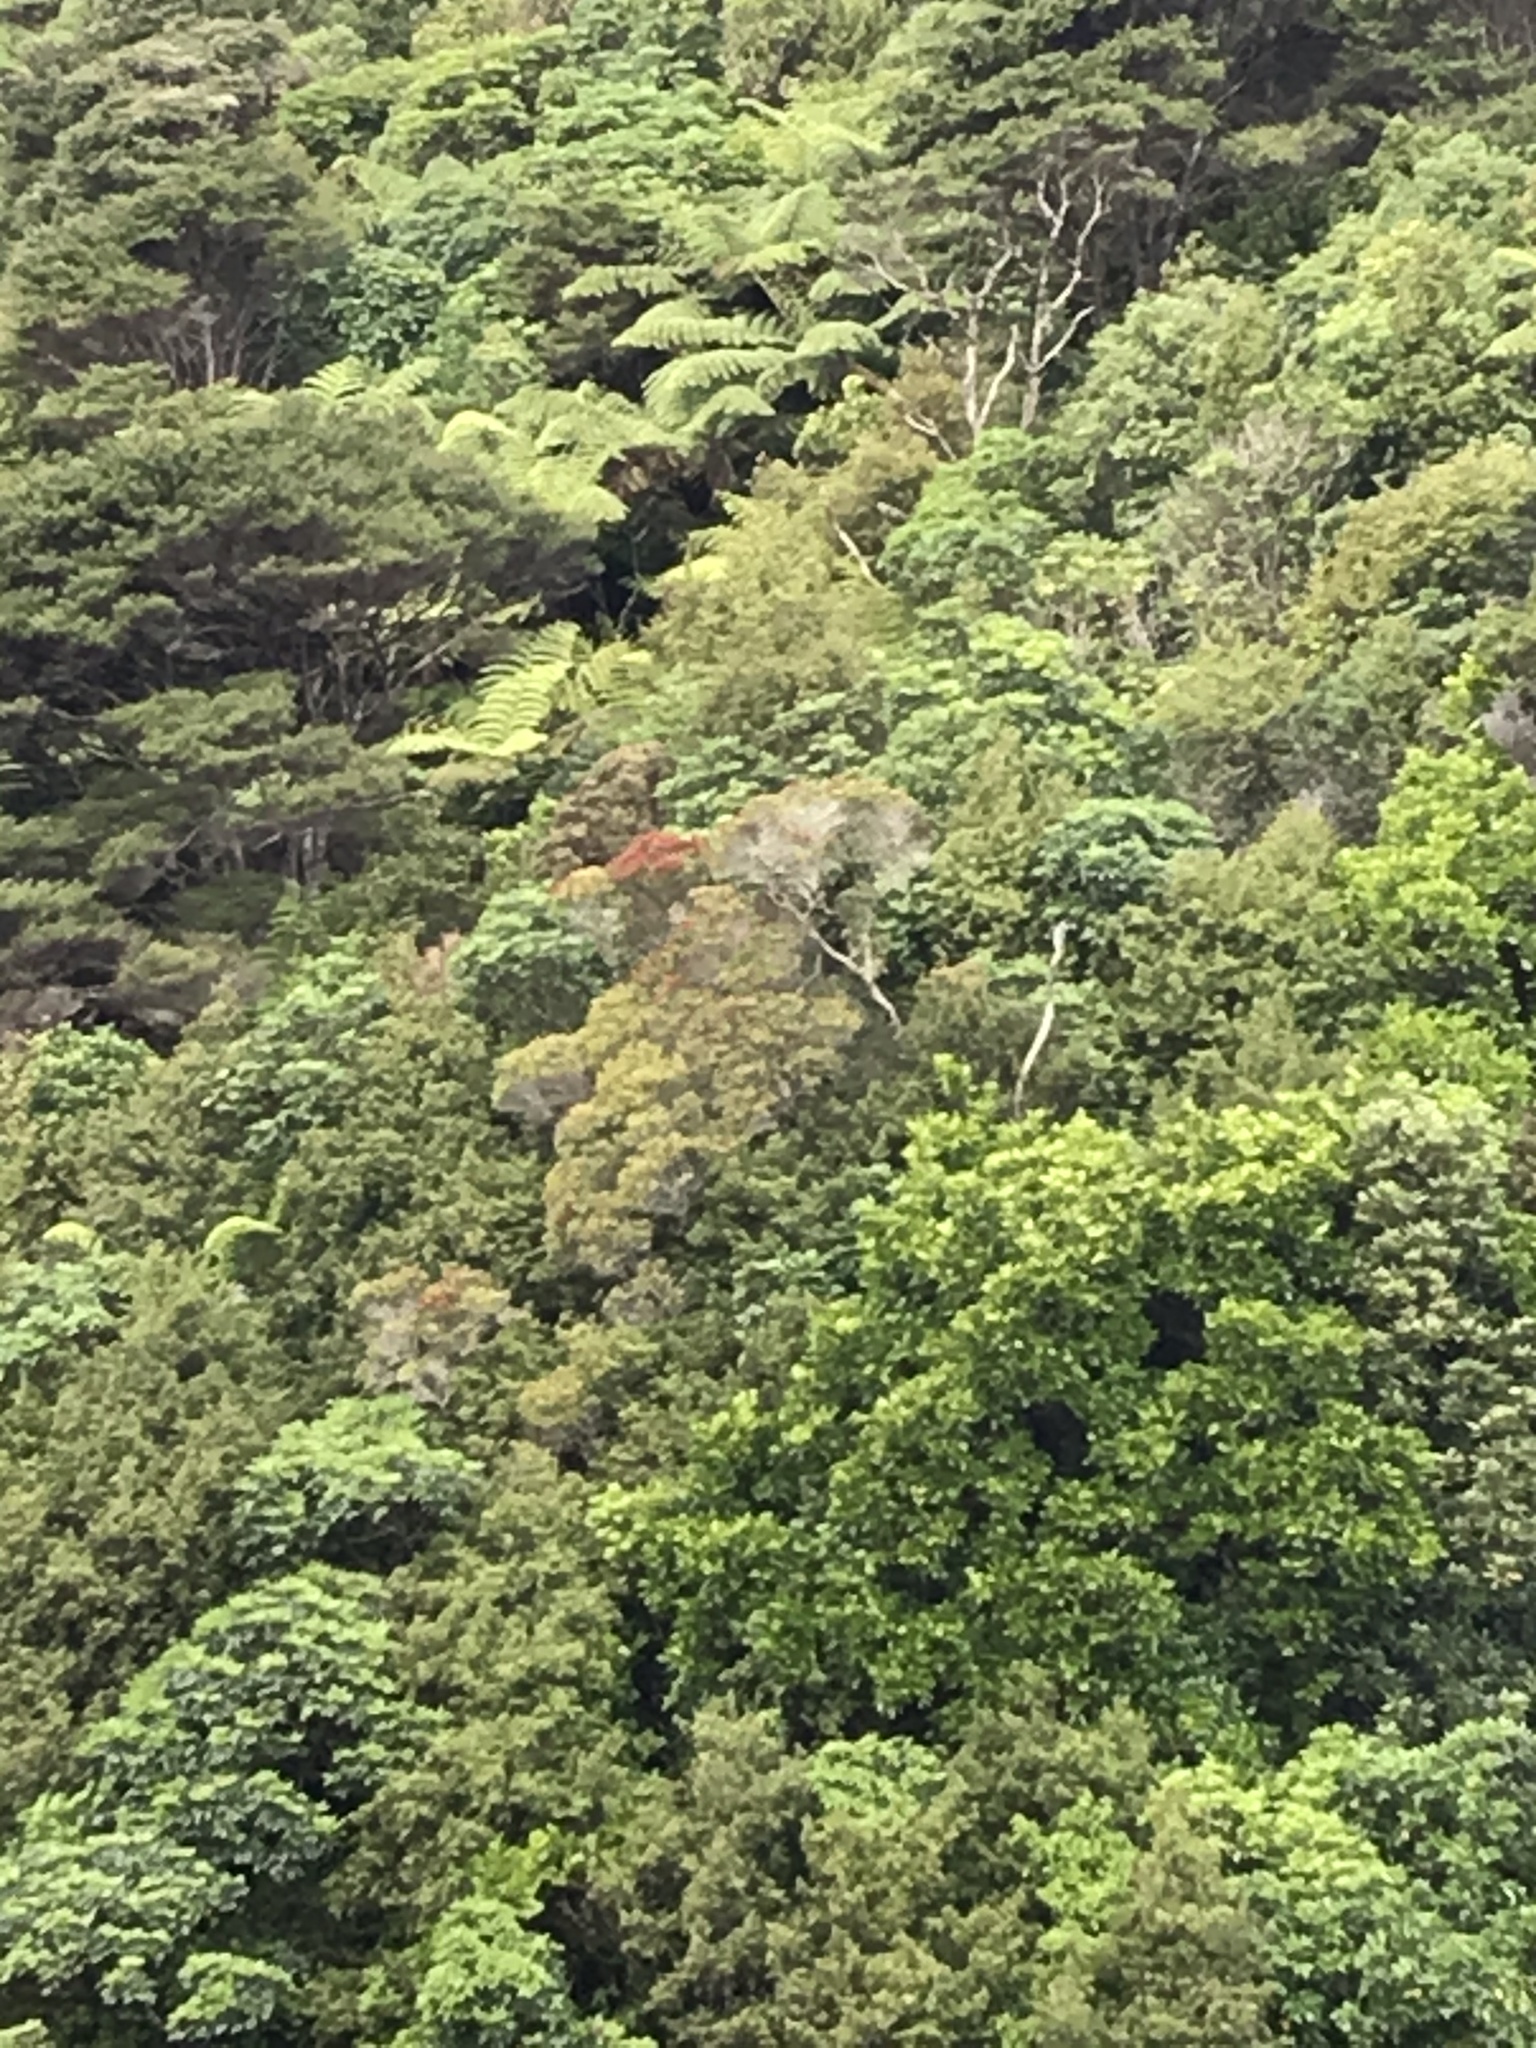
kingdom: Plantae
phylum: Tracheophyta
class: Magnoliopsida
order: Myrtales
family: Myrtaceae
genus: Metrosideros
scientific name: Metrosideros robusta
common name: Northern rata
